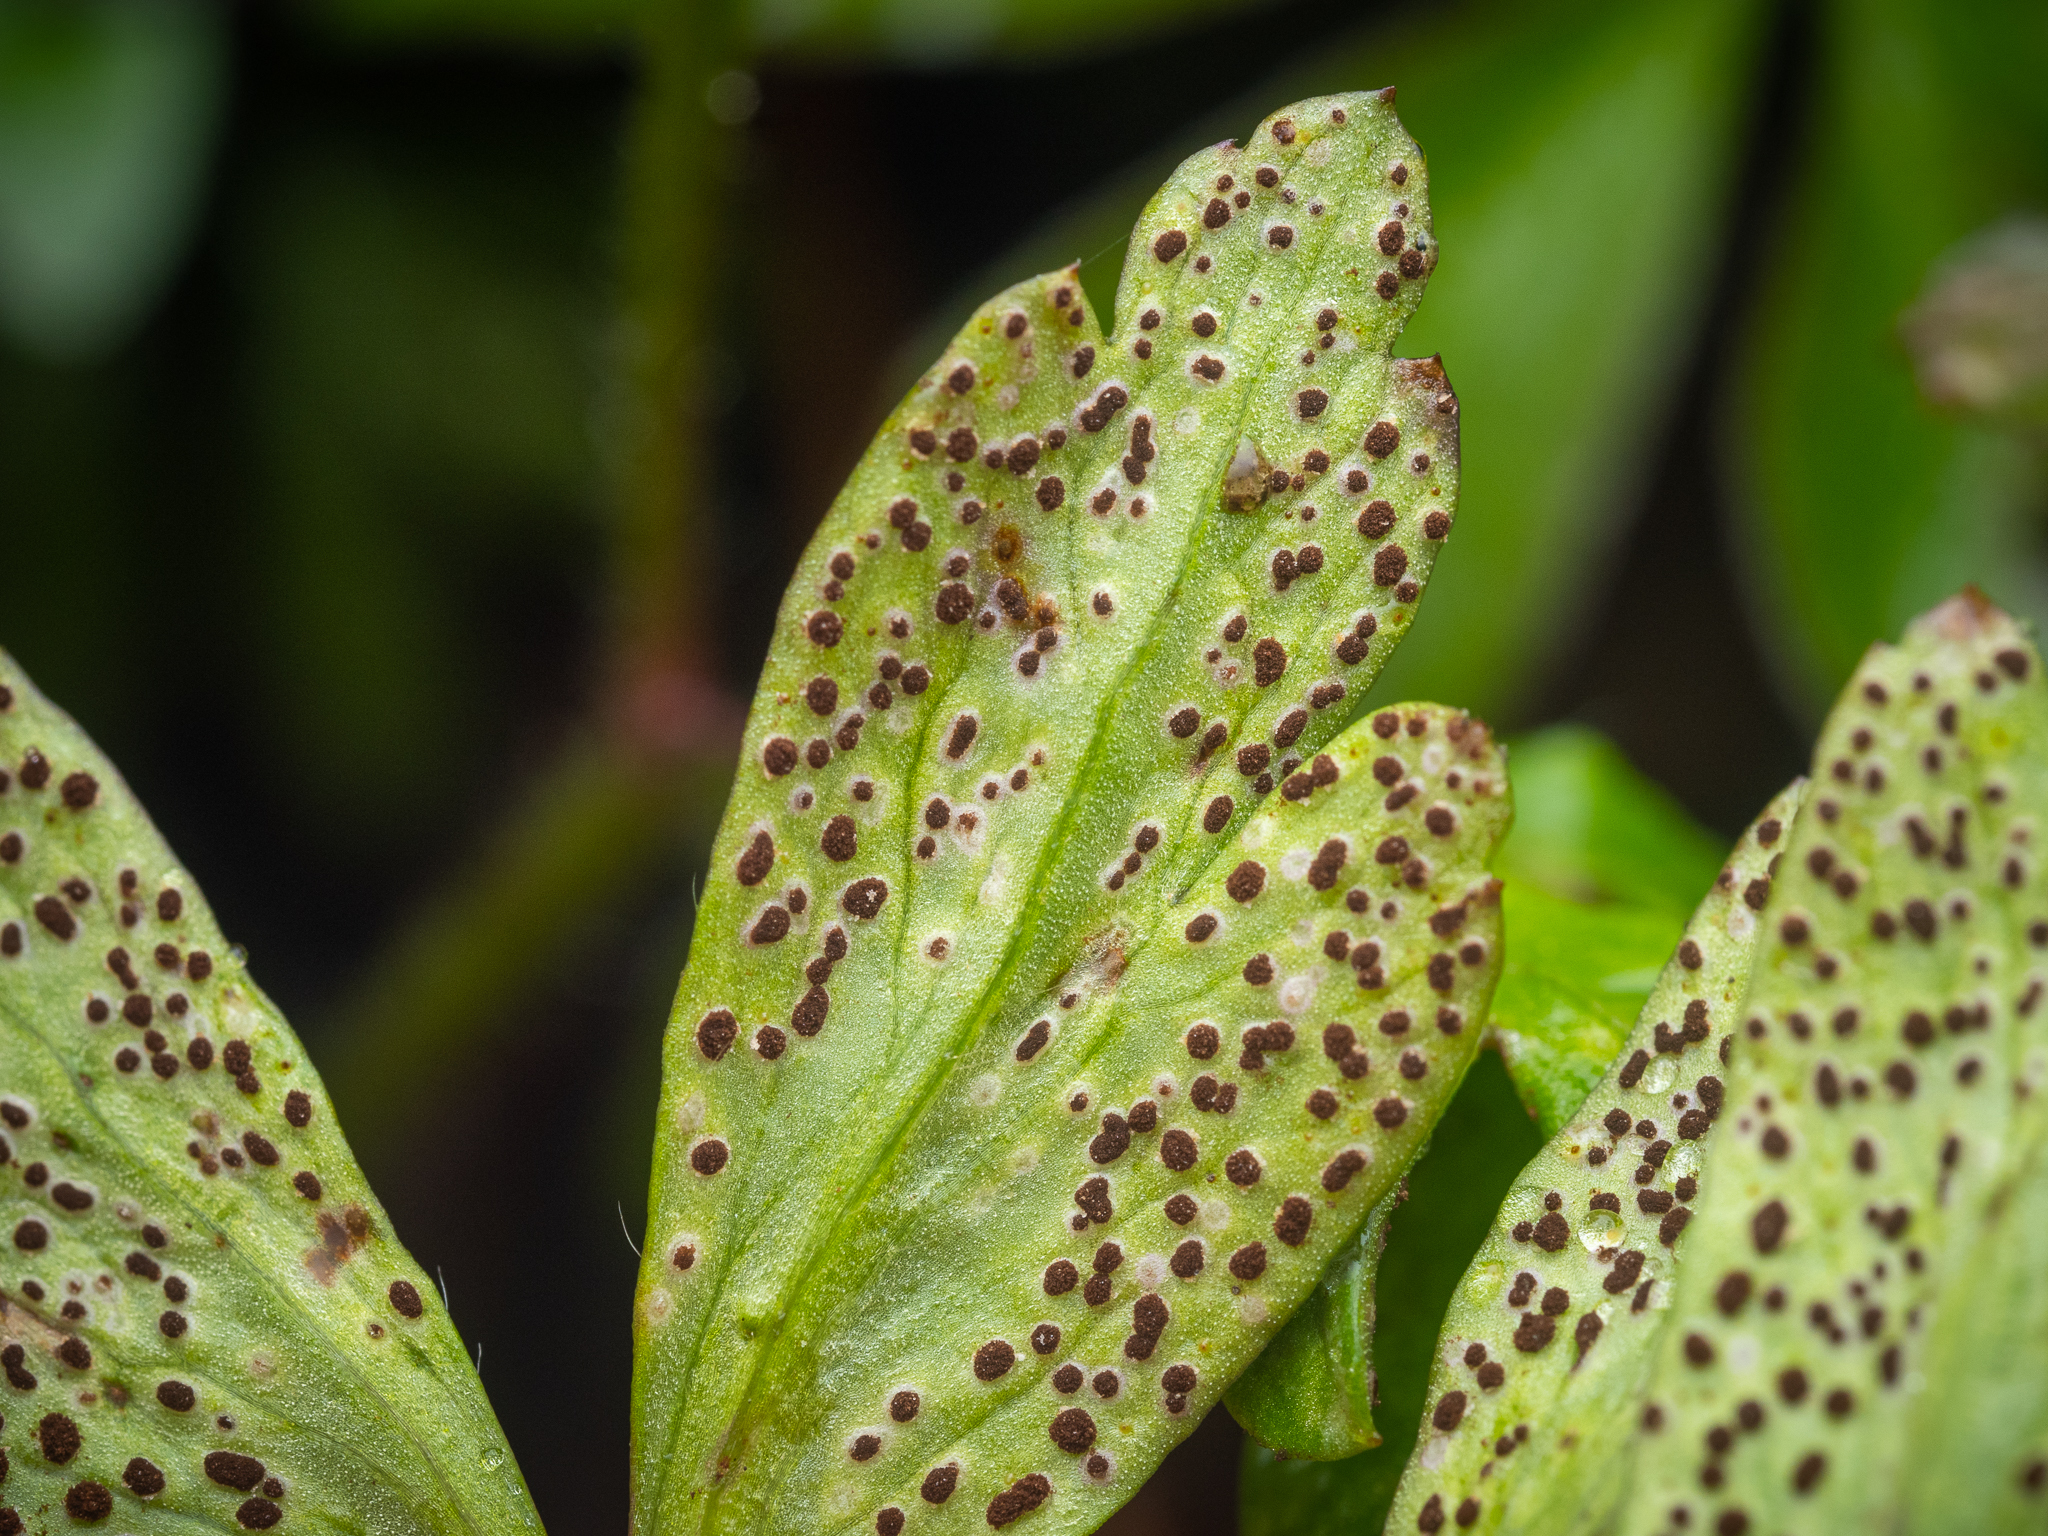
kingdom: Fungi
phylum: Basidiomycota
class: Pucciniomycetes
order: Pucciniales
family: Tranzscheliaceae
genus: Tranzschelia
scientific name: Tranzschelia anemones
